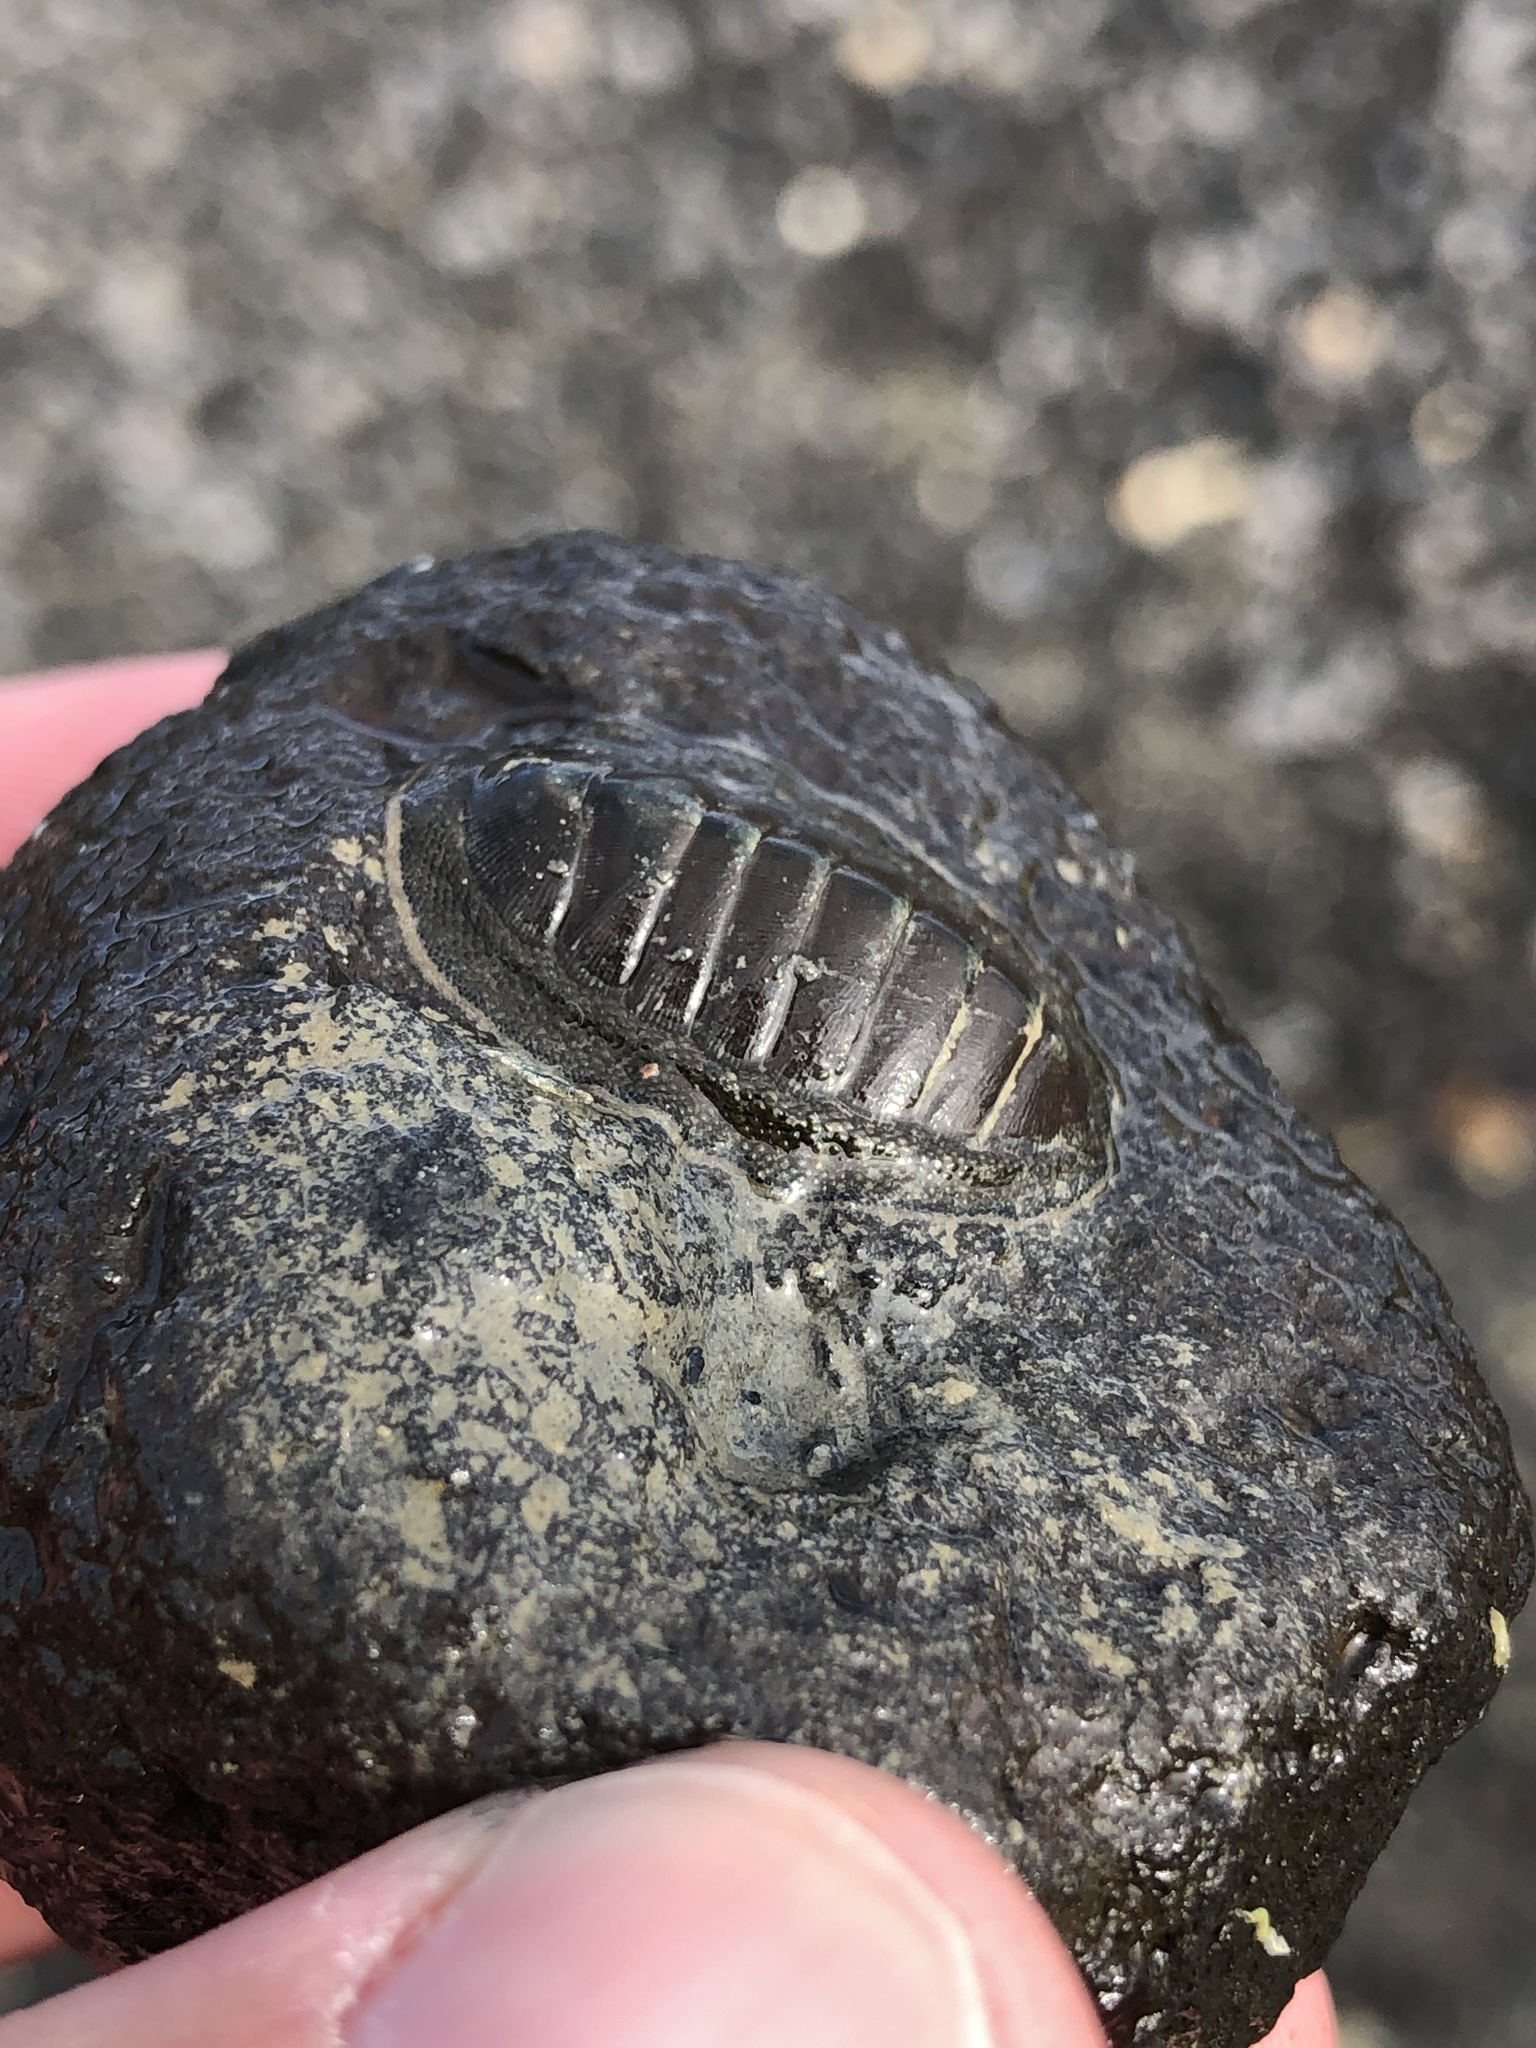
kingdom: Animalia
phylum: Mollusca
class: Polyplacophora
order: Chitonida
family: Chitonidae
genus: Chiton
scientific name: Chiton glaucus
